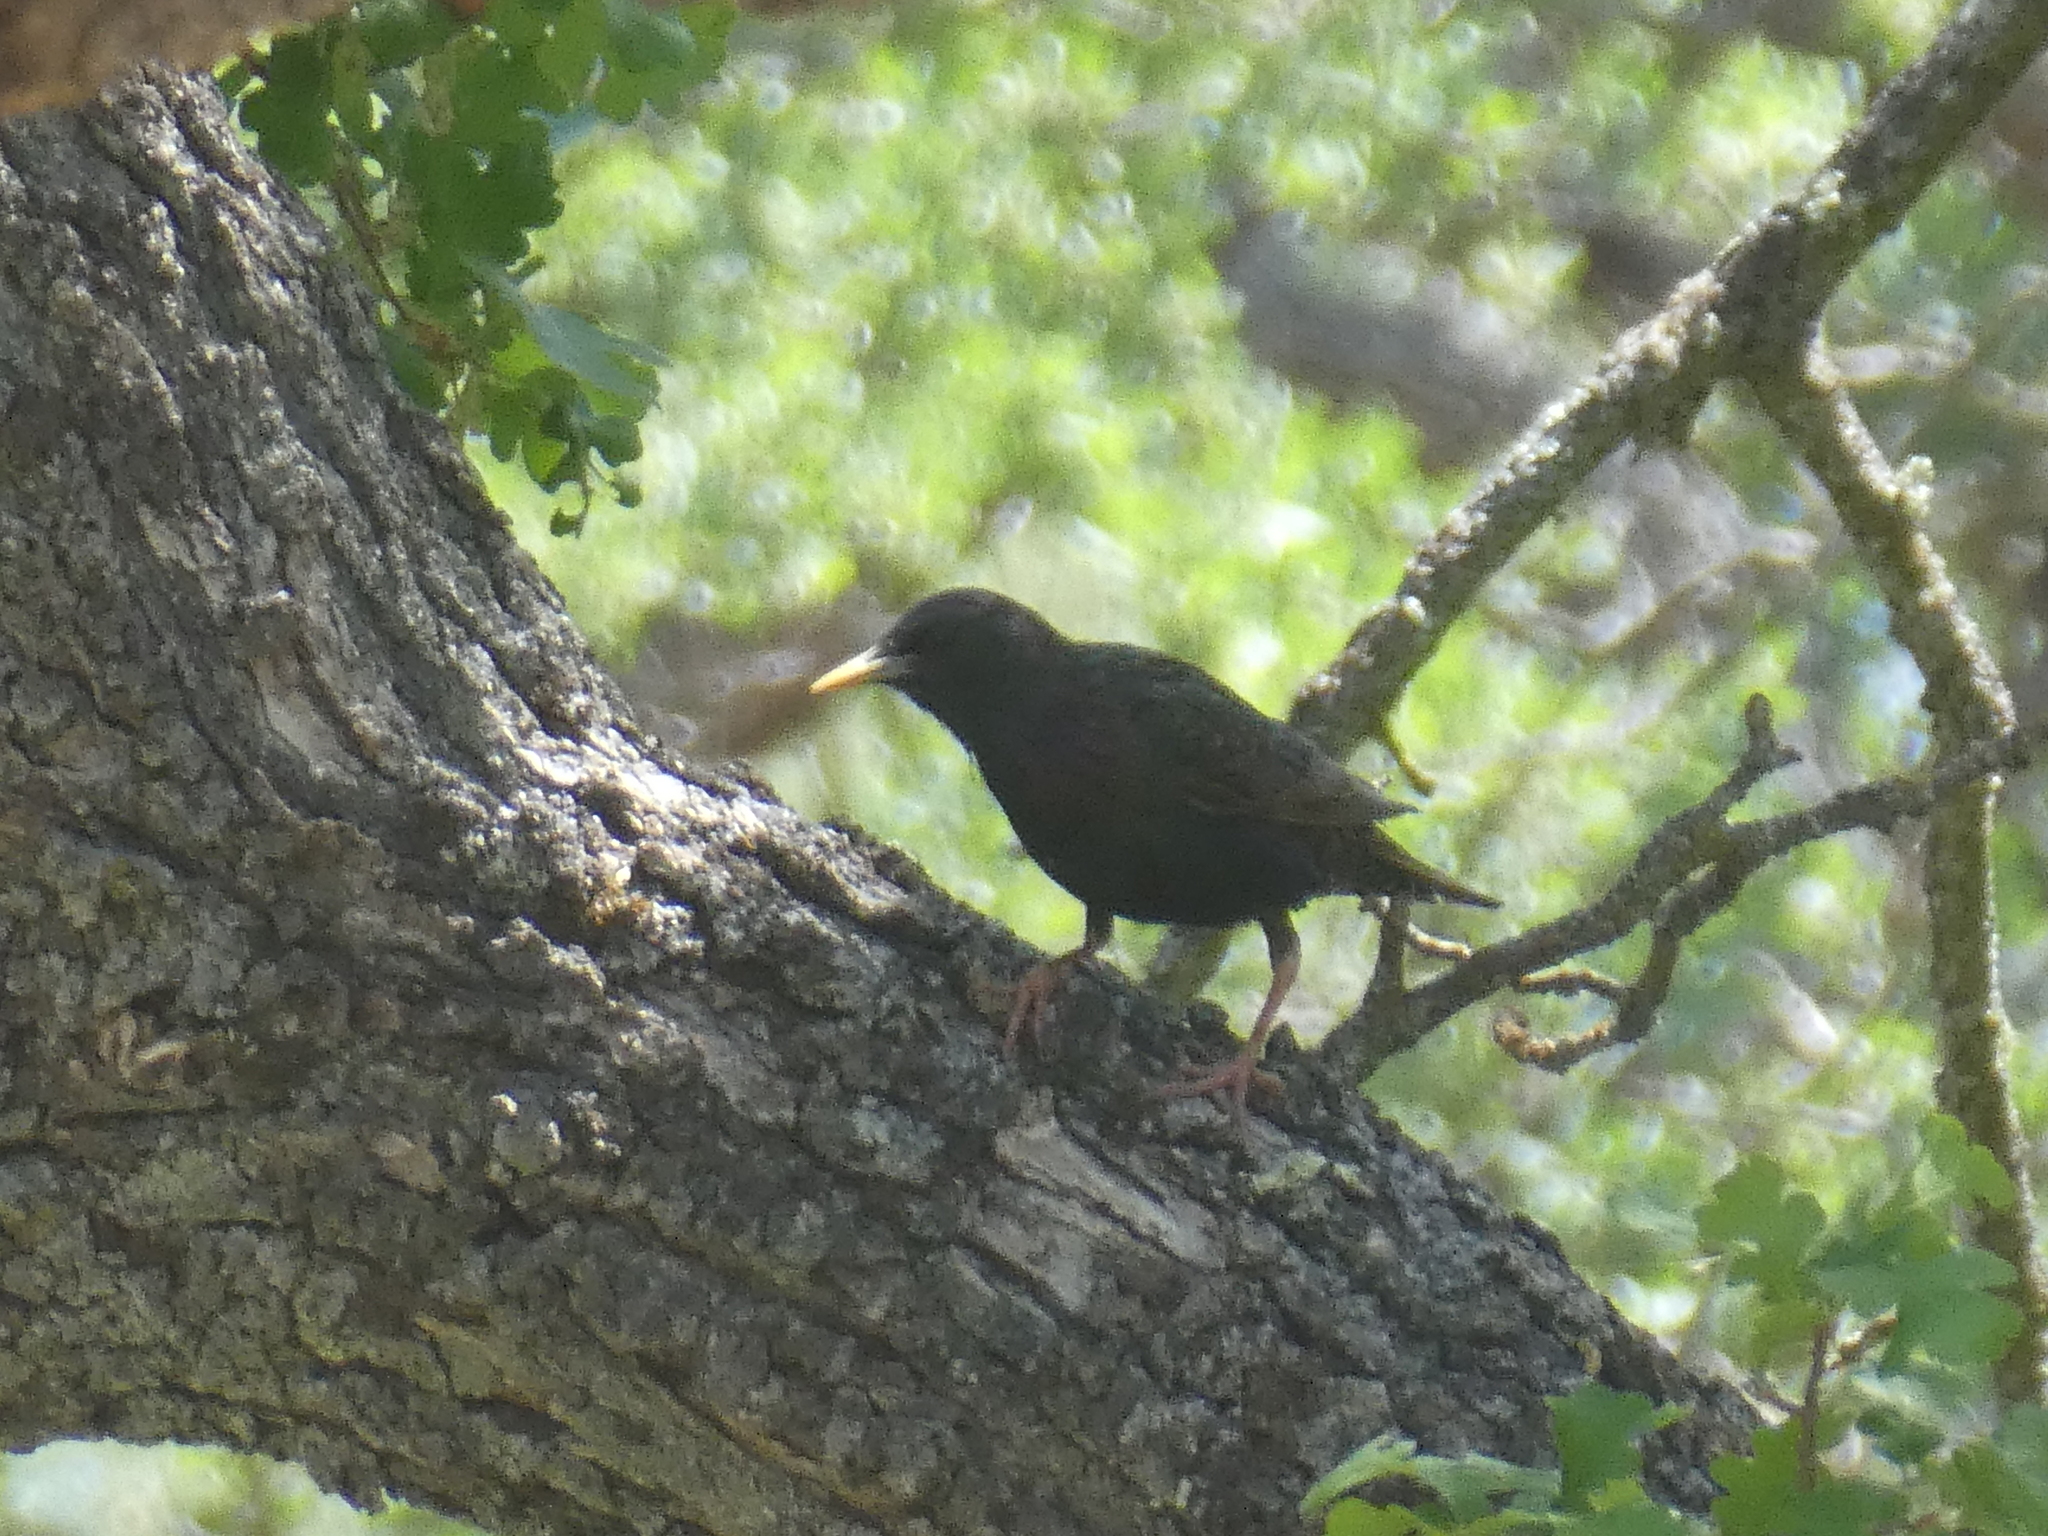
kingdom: Animalia
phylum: Chordata
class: Aves
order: Passeriformes
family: Sturnidae
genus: Sturnus
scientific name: Sturnus vulgaris
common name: Common starling
